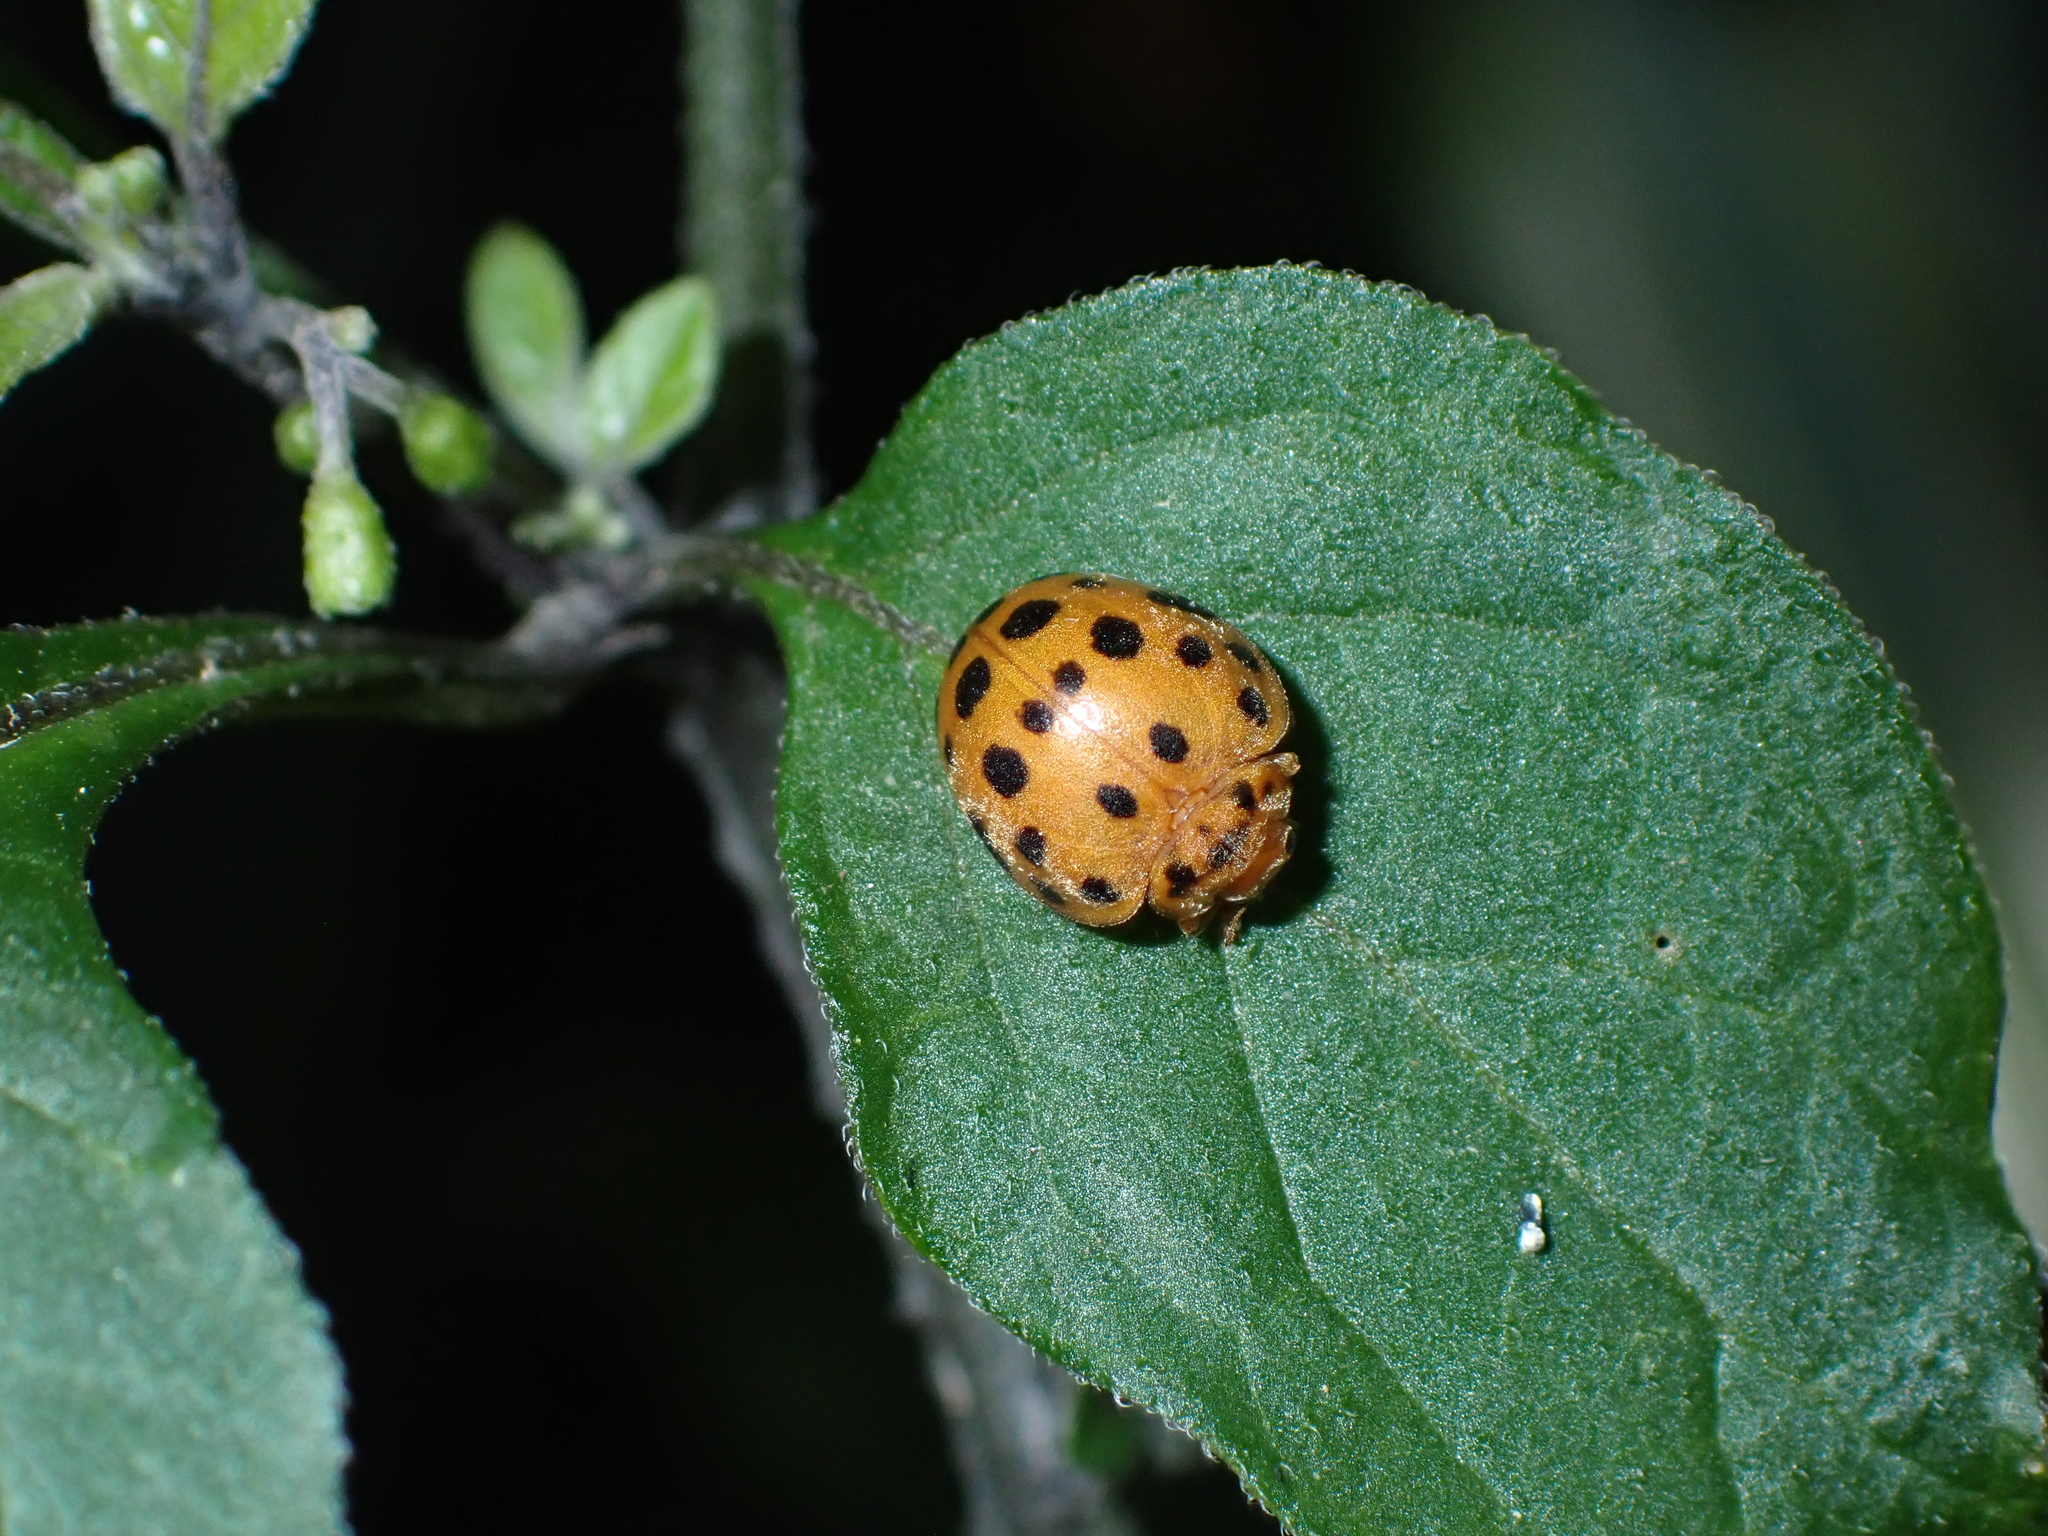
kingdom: Animalia
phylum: Arthropoda
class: Insecta
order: Coleoptera
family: Coccinellidae
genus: Henosepilachna
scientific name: Henosepilachna vigintioctopunctata
